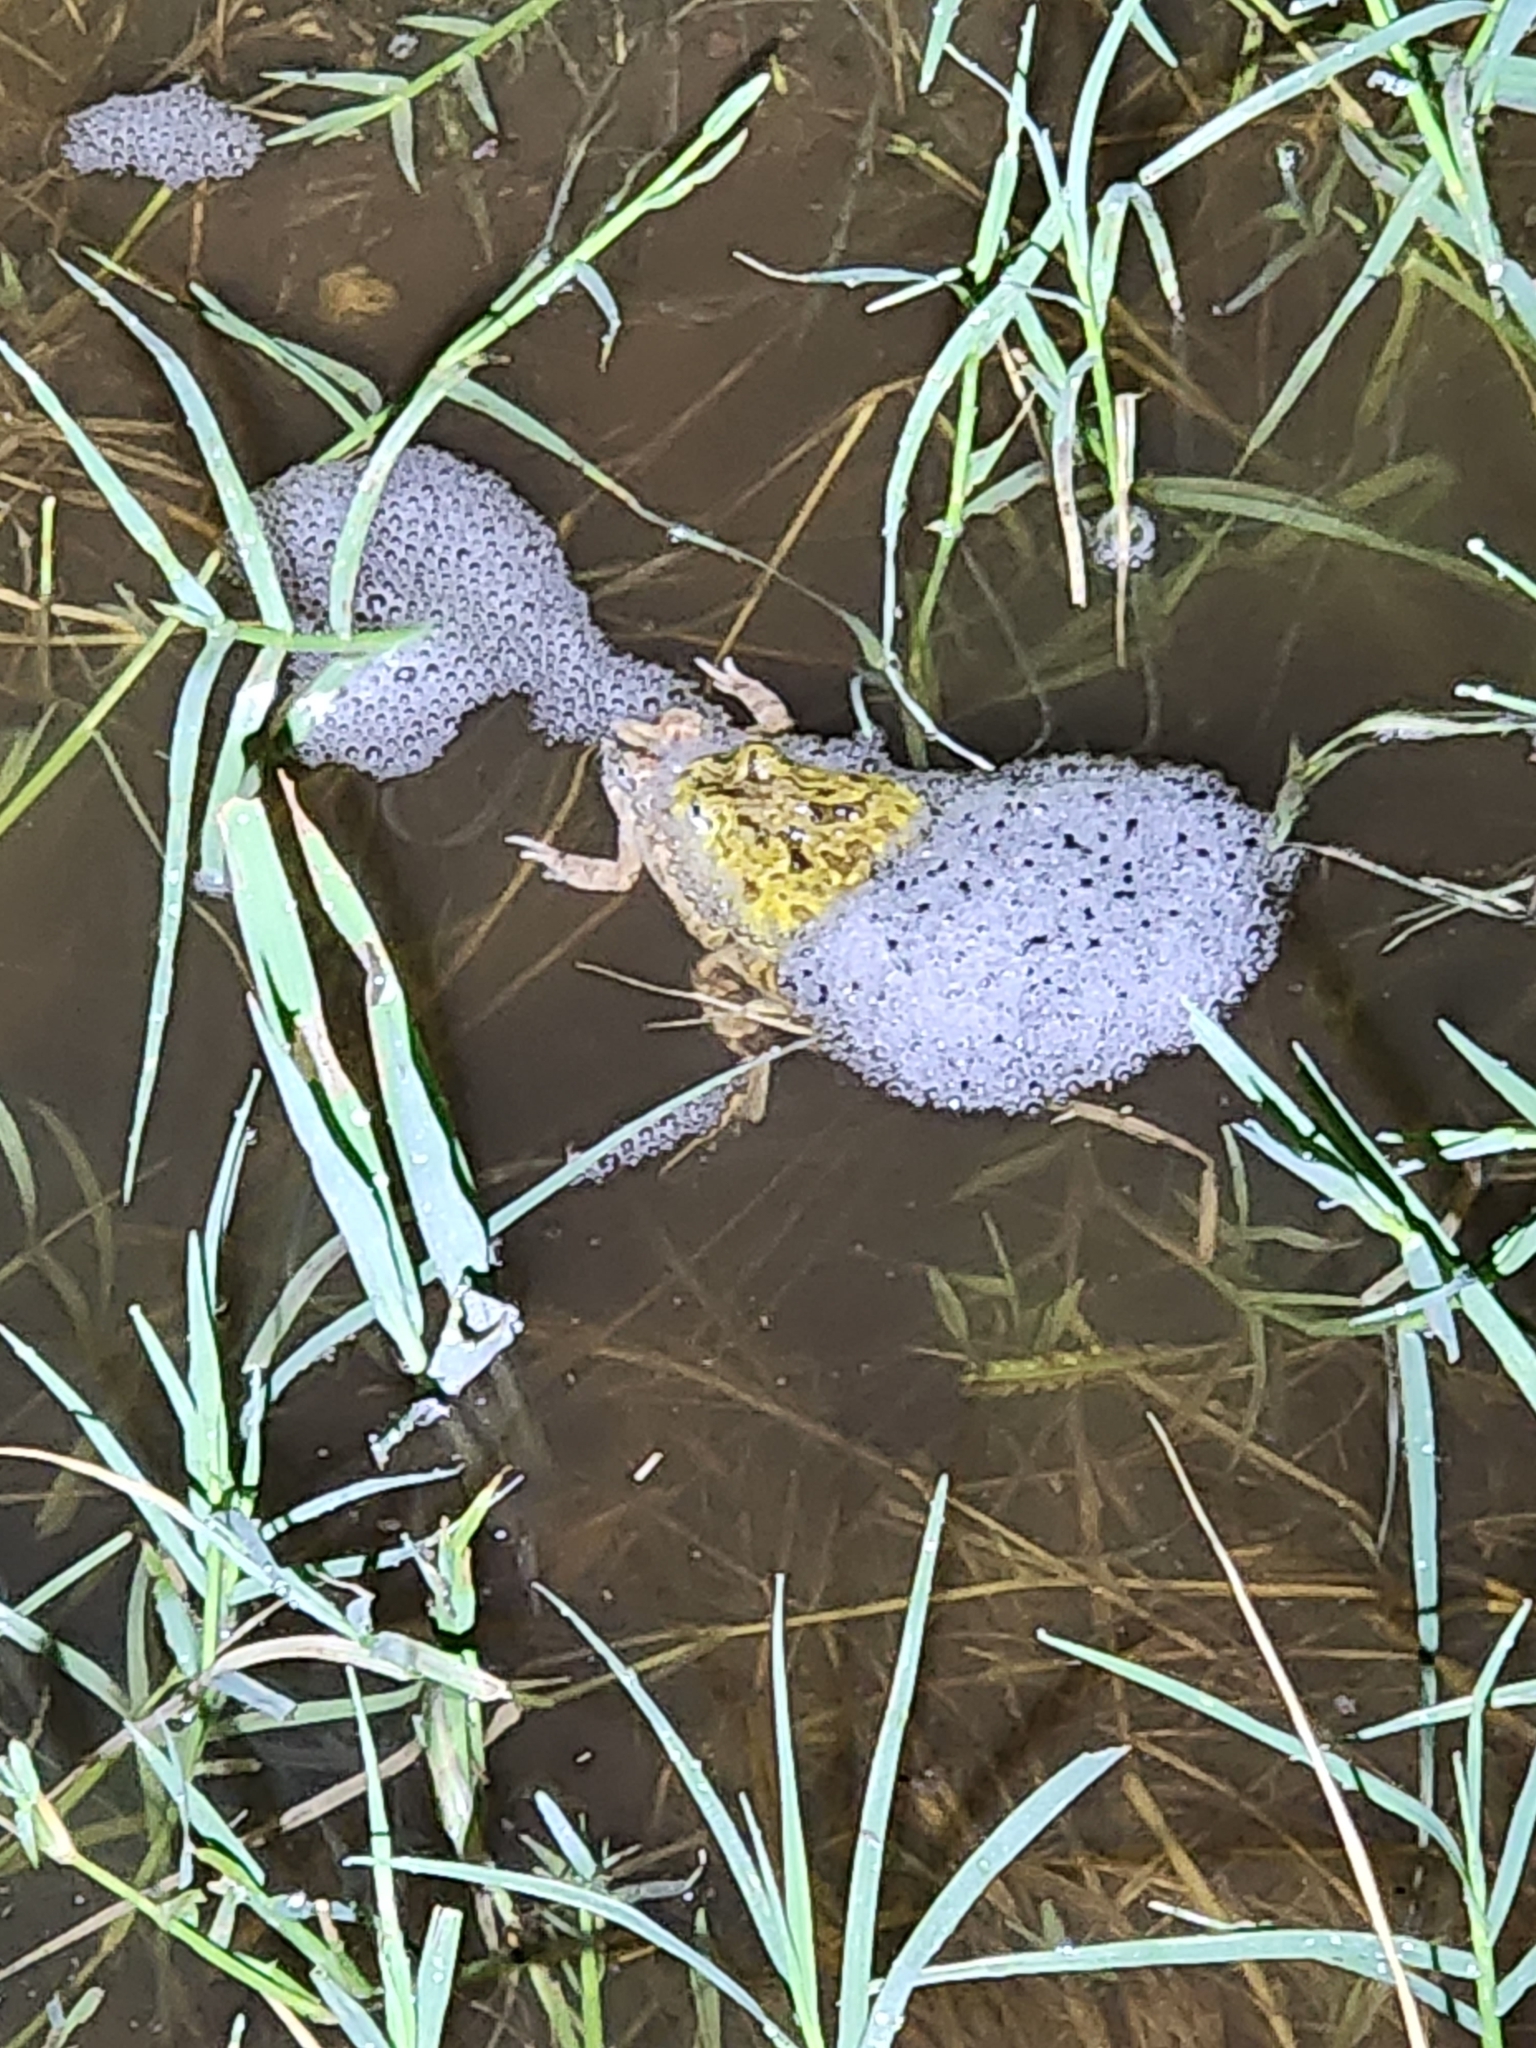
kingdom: Animalia
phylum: Chordata
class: Amphibia
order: Anura
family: Limnodynastidae
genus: Platyplectrum
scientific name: Platyplectrum ornatum
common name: Ornate burrowing frog
